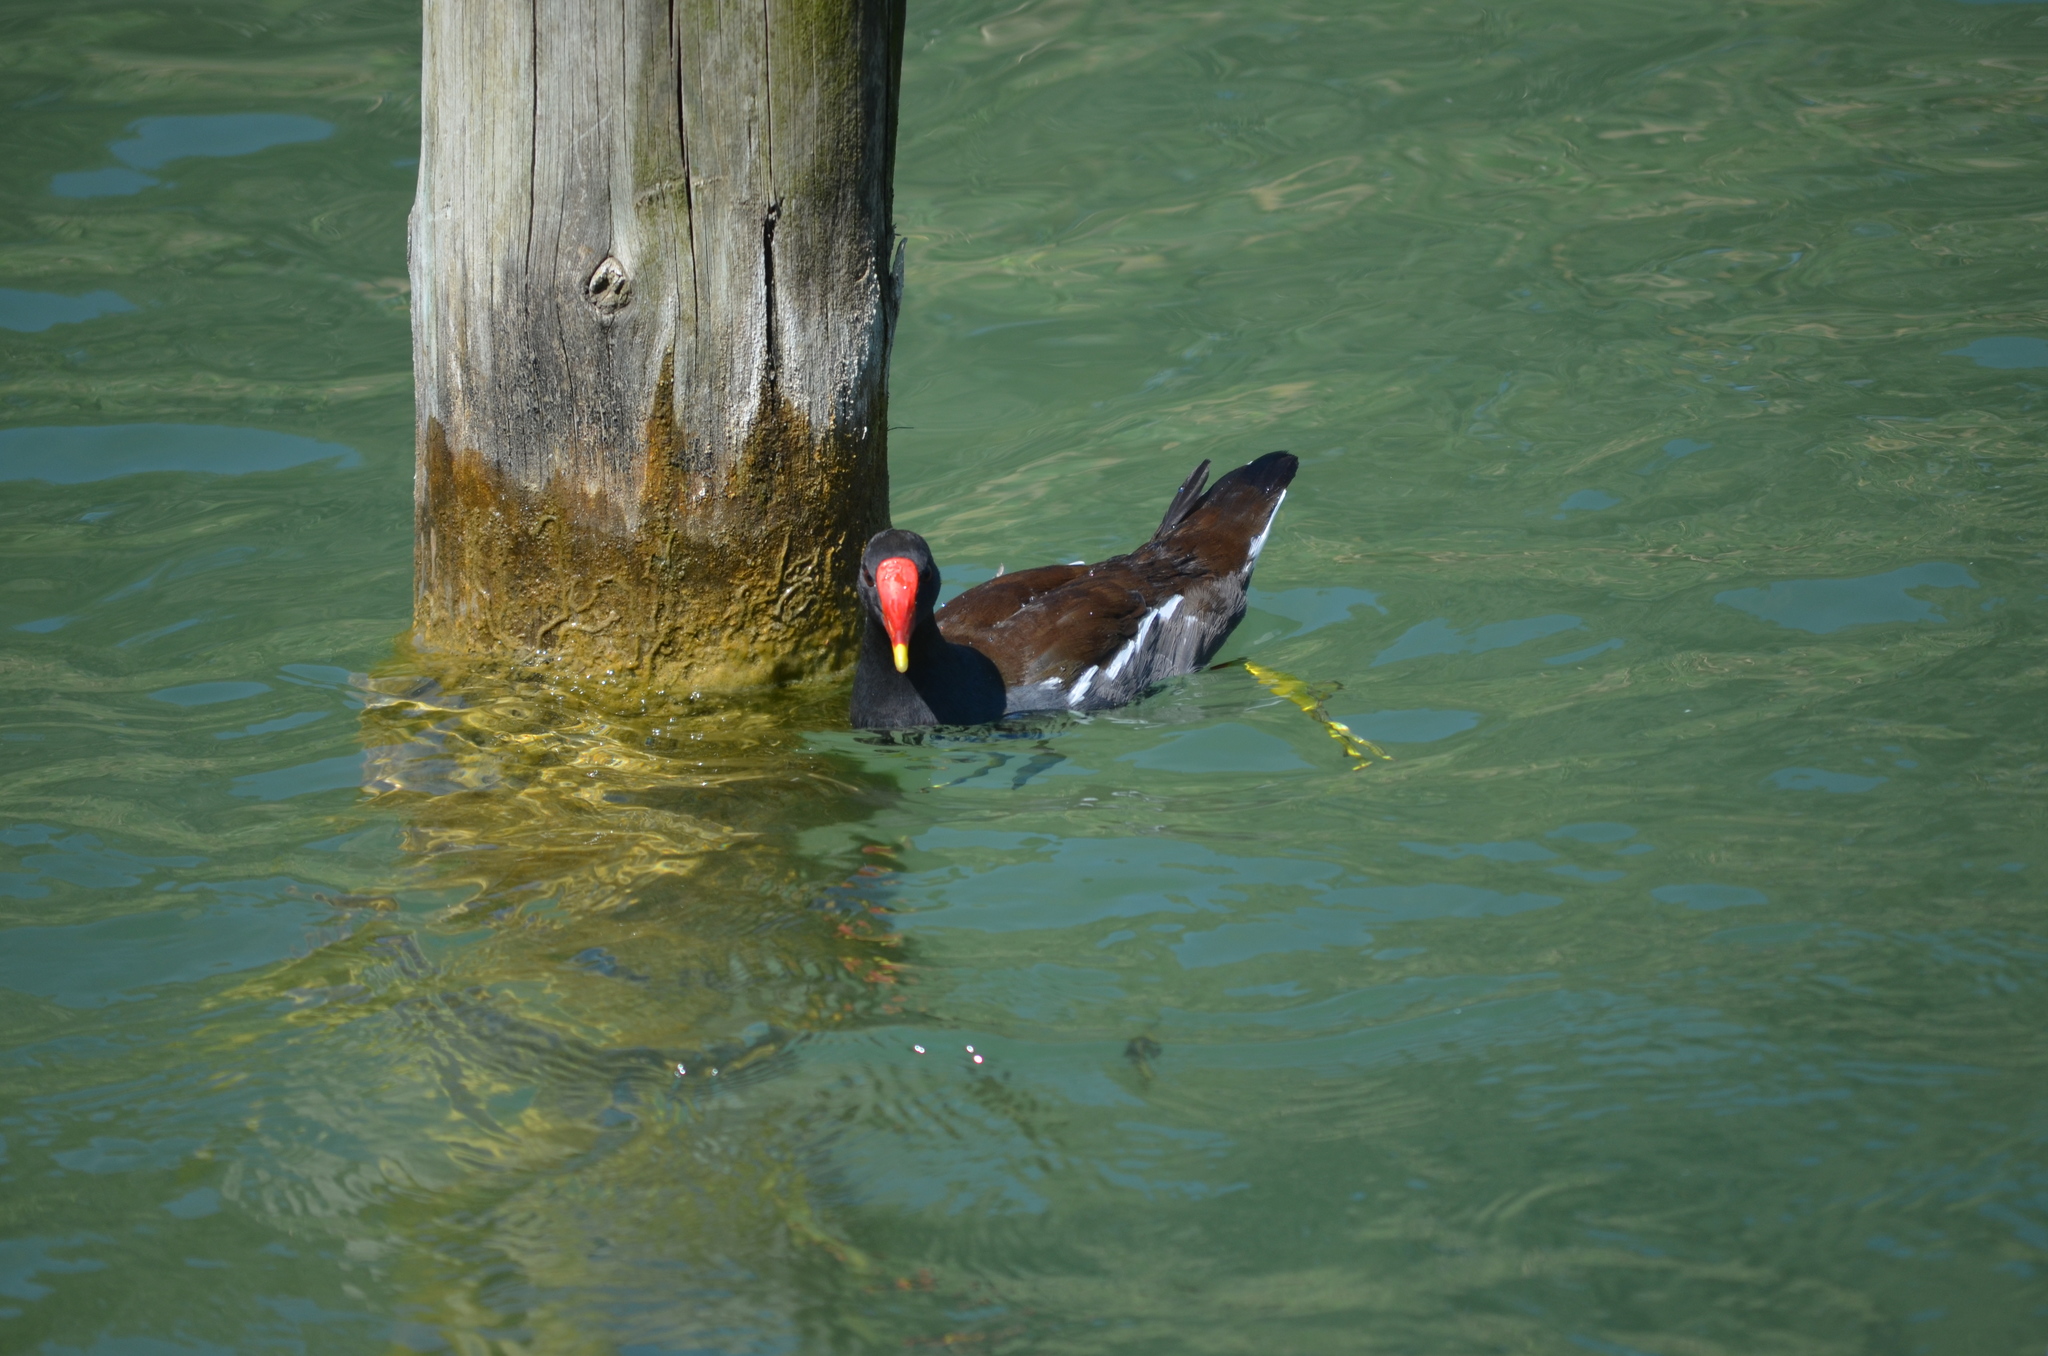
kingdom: Animalia
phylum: Chordata
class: Aves
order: Gruiformes
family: Rallidae
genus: Gallinula
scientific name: Gallinula chloropus
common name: Common moorhen
